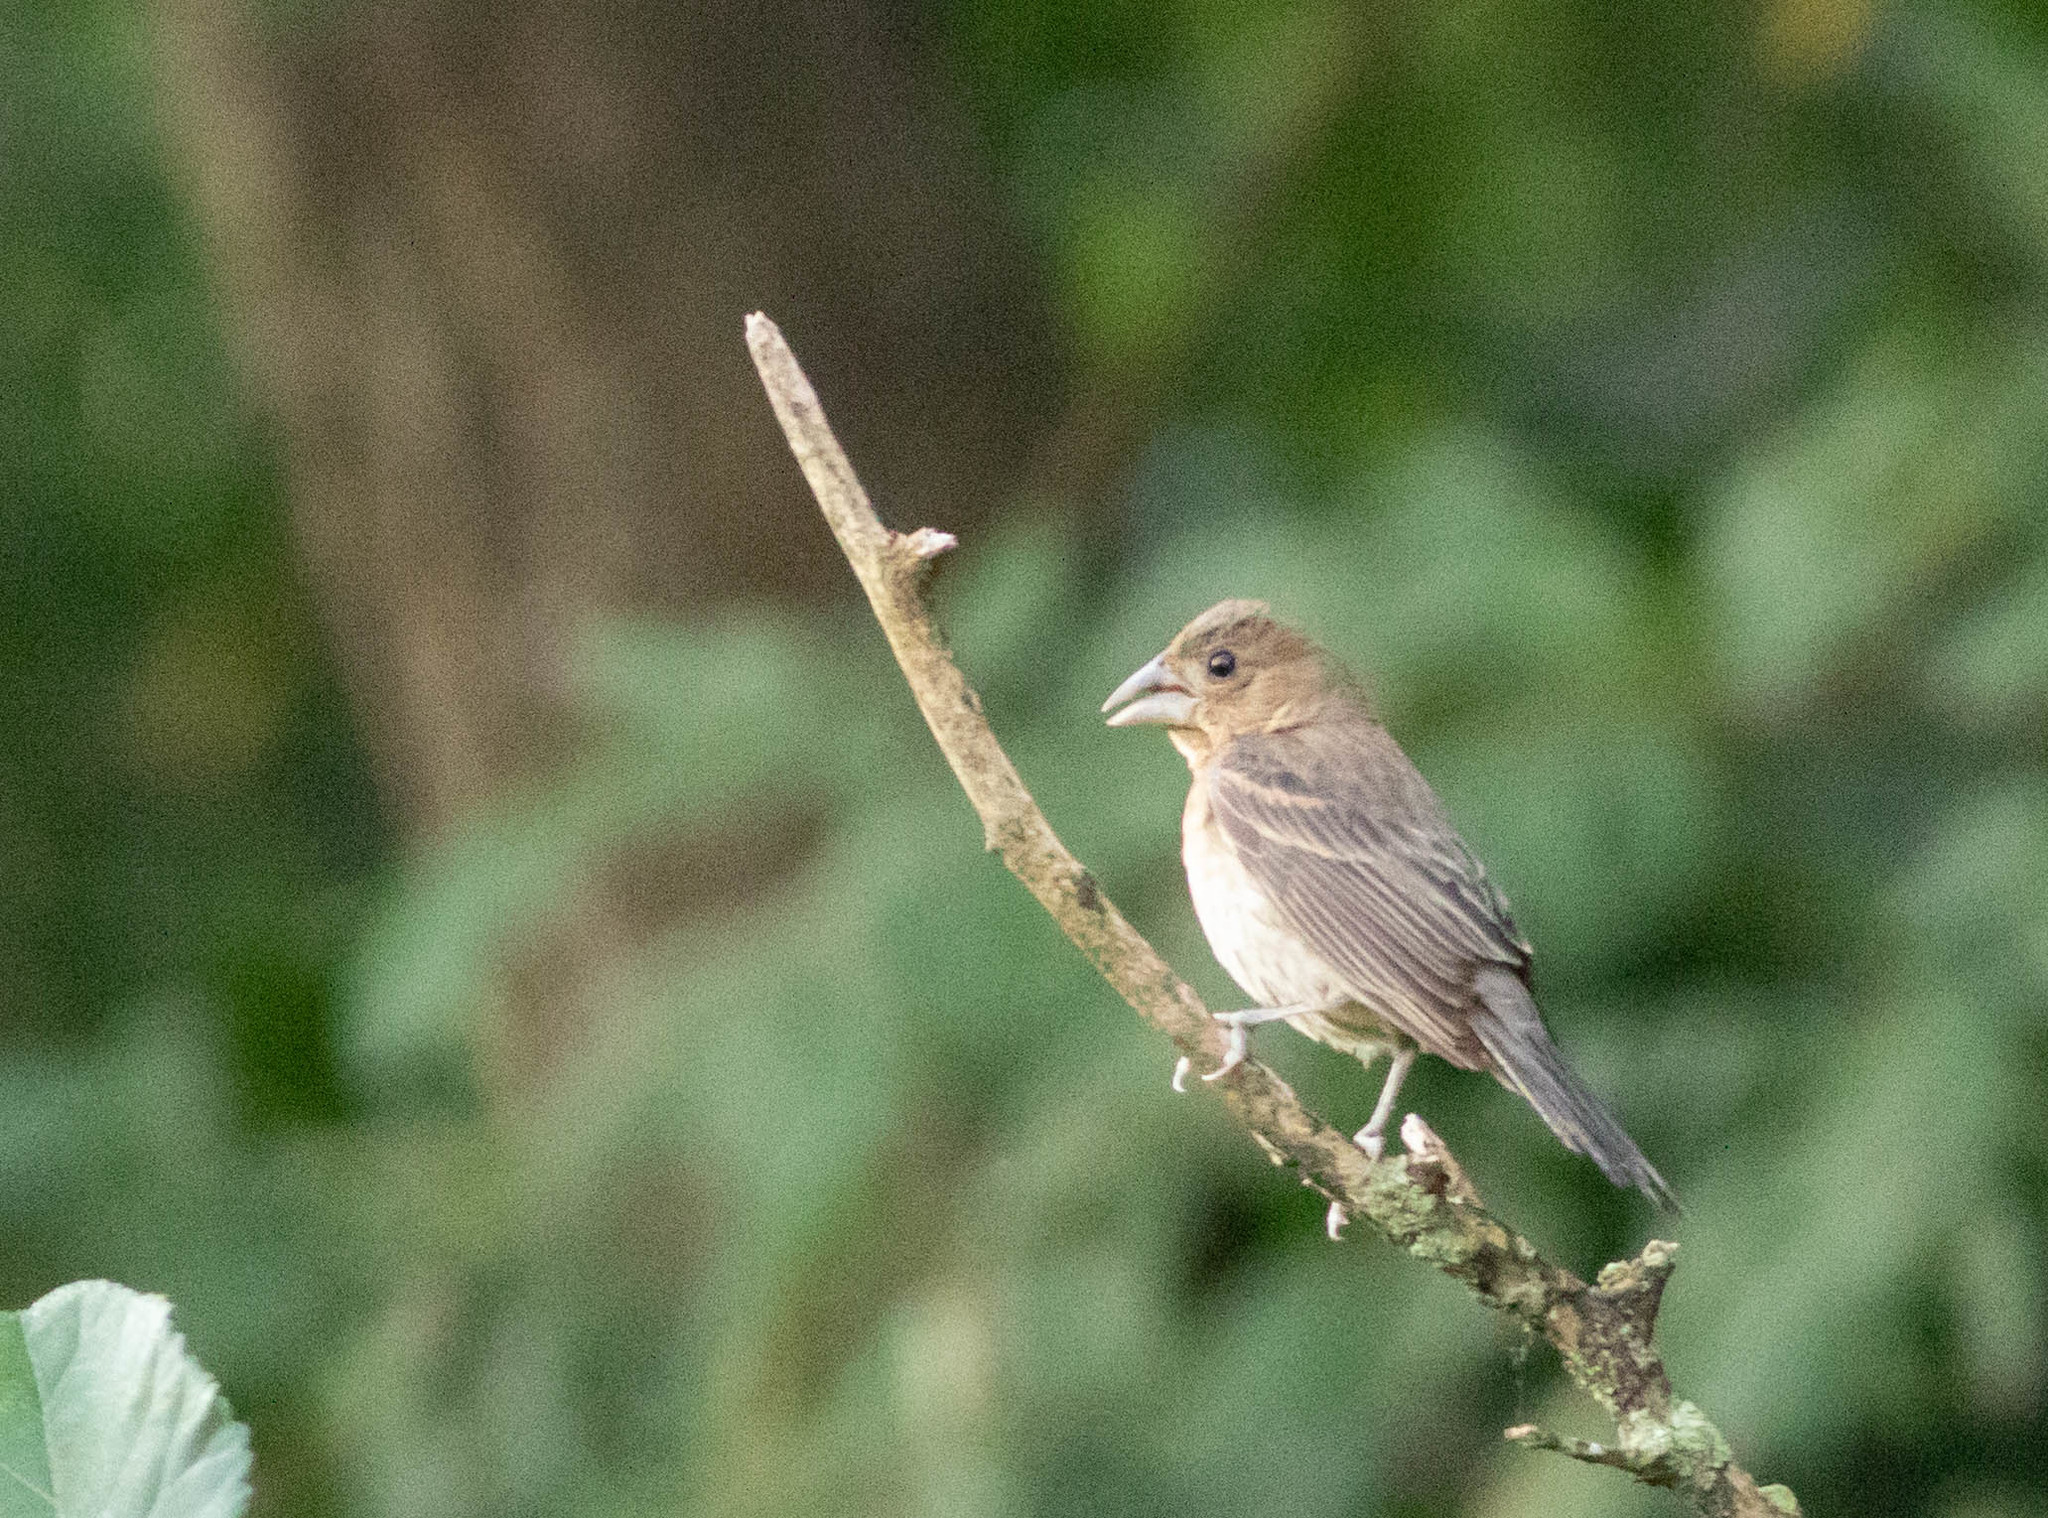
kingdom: Animalia
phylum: Chordata
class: Aves
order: Passeriformes
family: Cardinalidae
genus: Passerina
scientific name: Passerina caerulea
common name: Blue grosbeak
